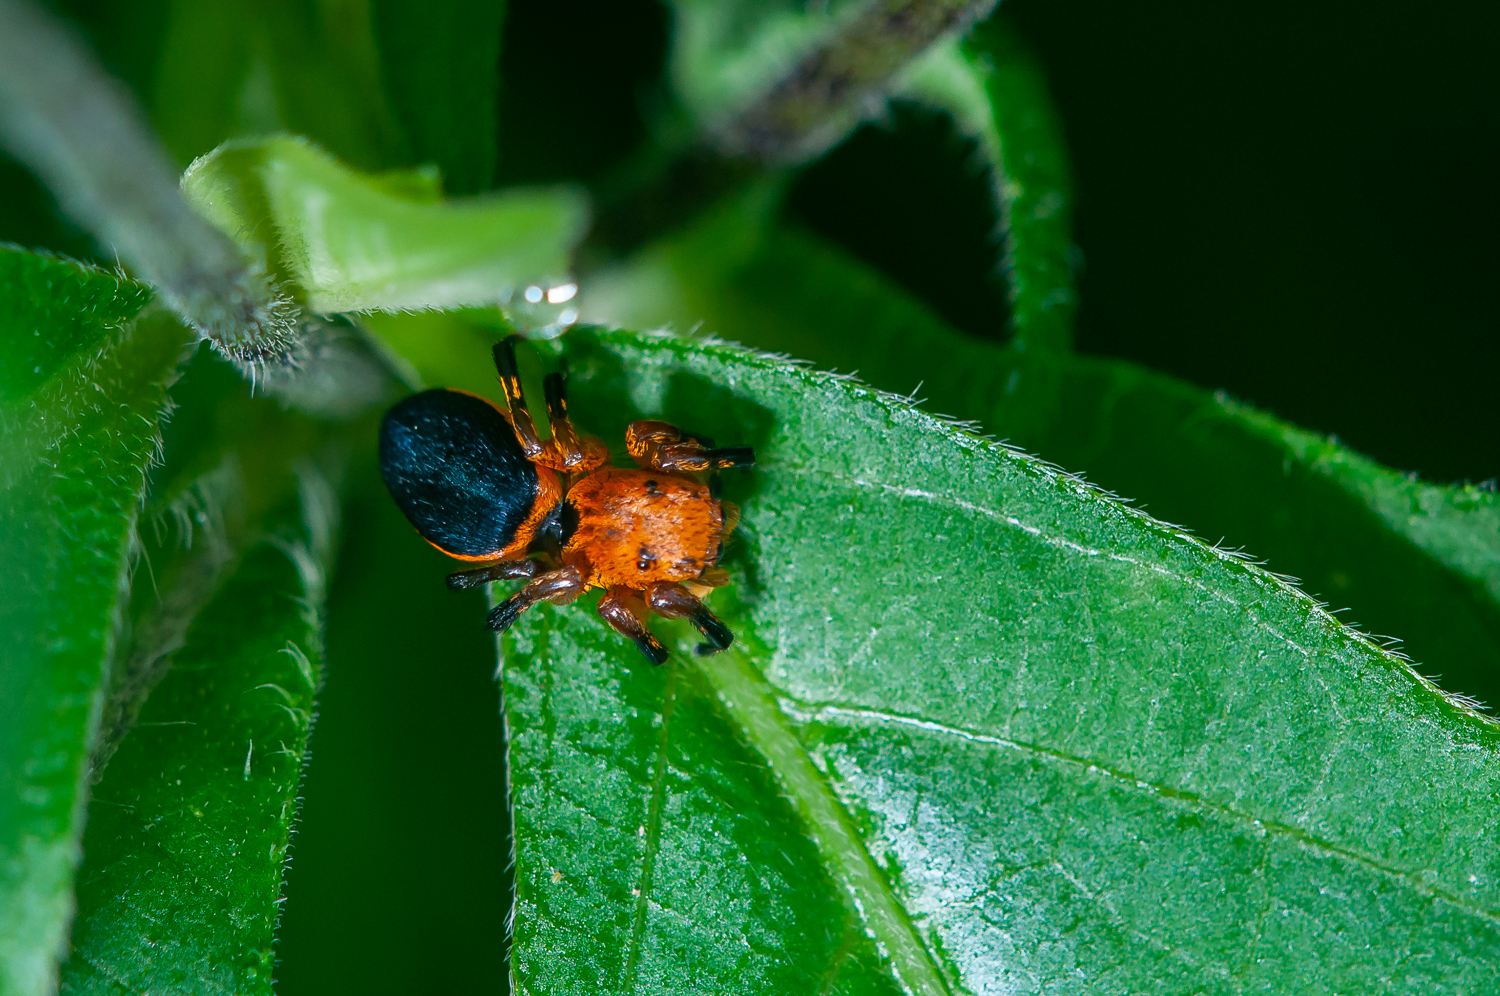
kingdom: Animalia
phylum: Arthropoda
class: Arachnida
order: Araneae
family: Salticidae
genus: Phiale
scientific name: Phiale mimica
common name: Jumping spiders
